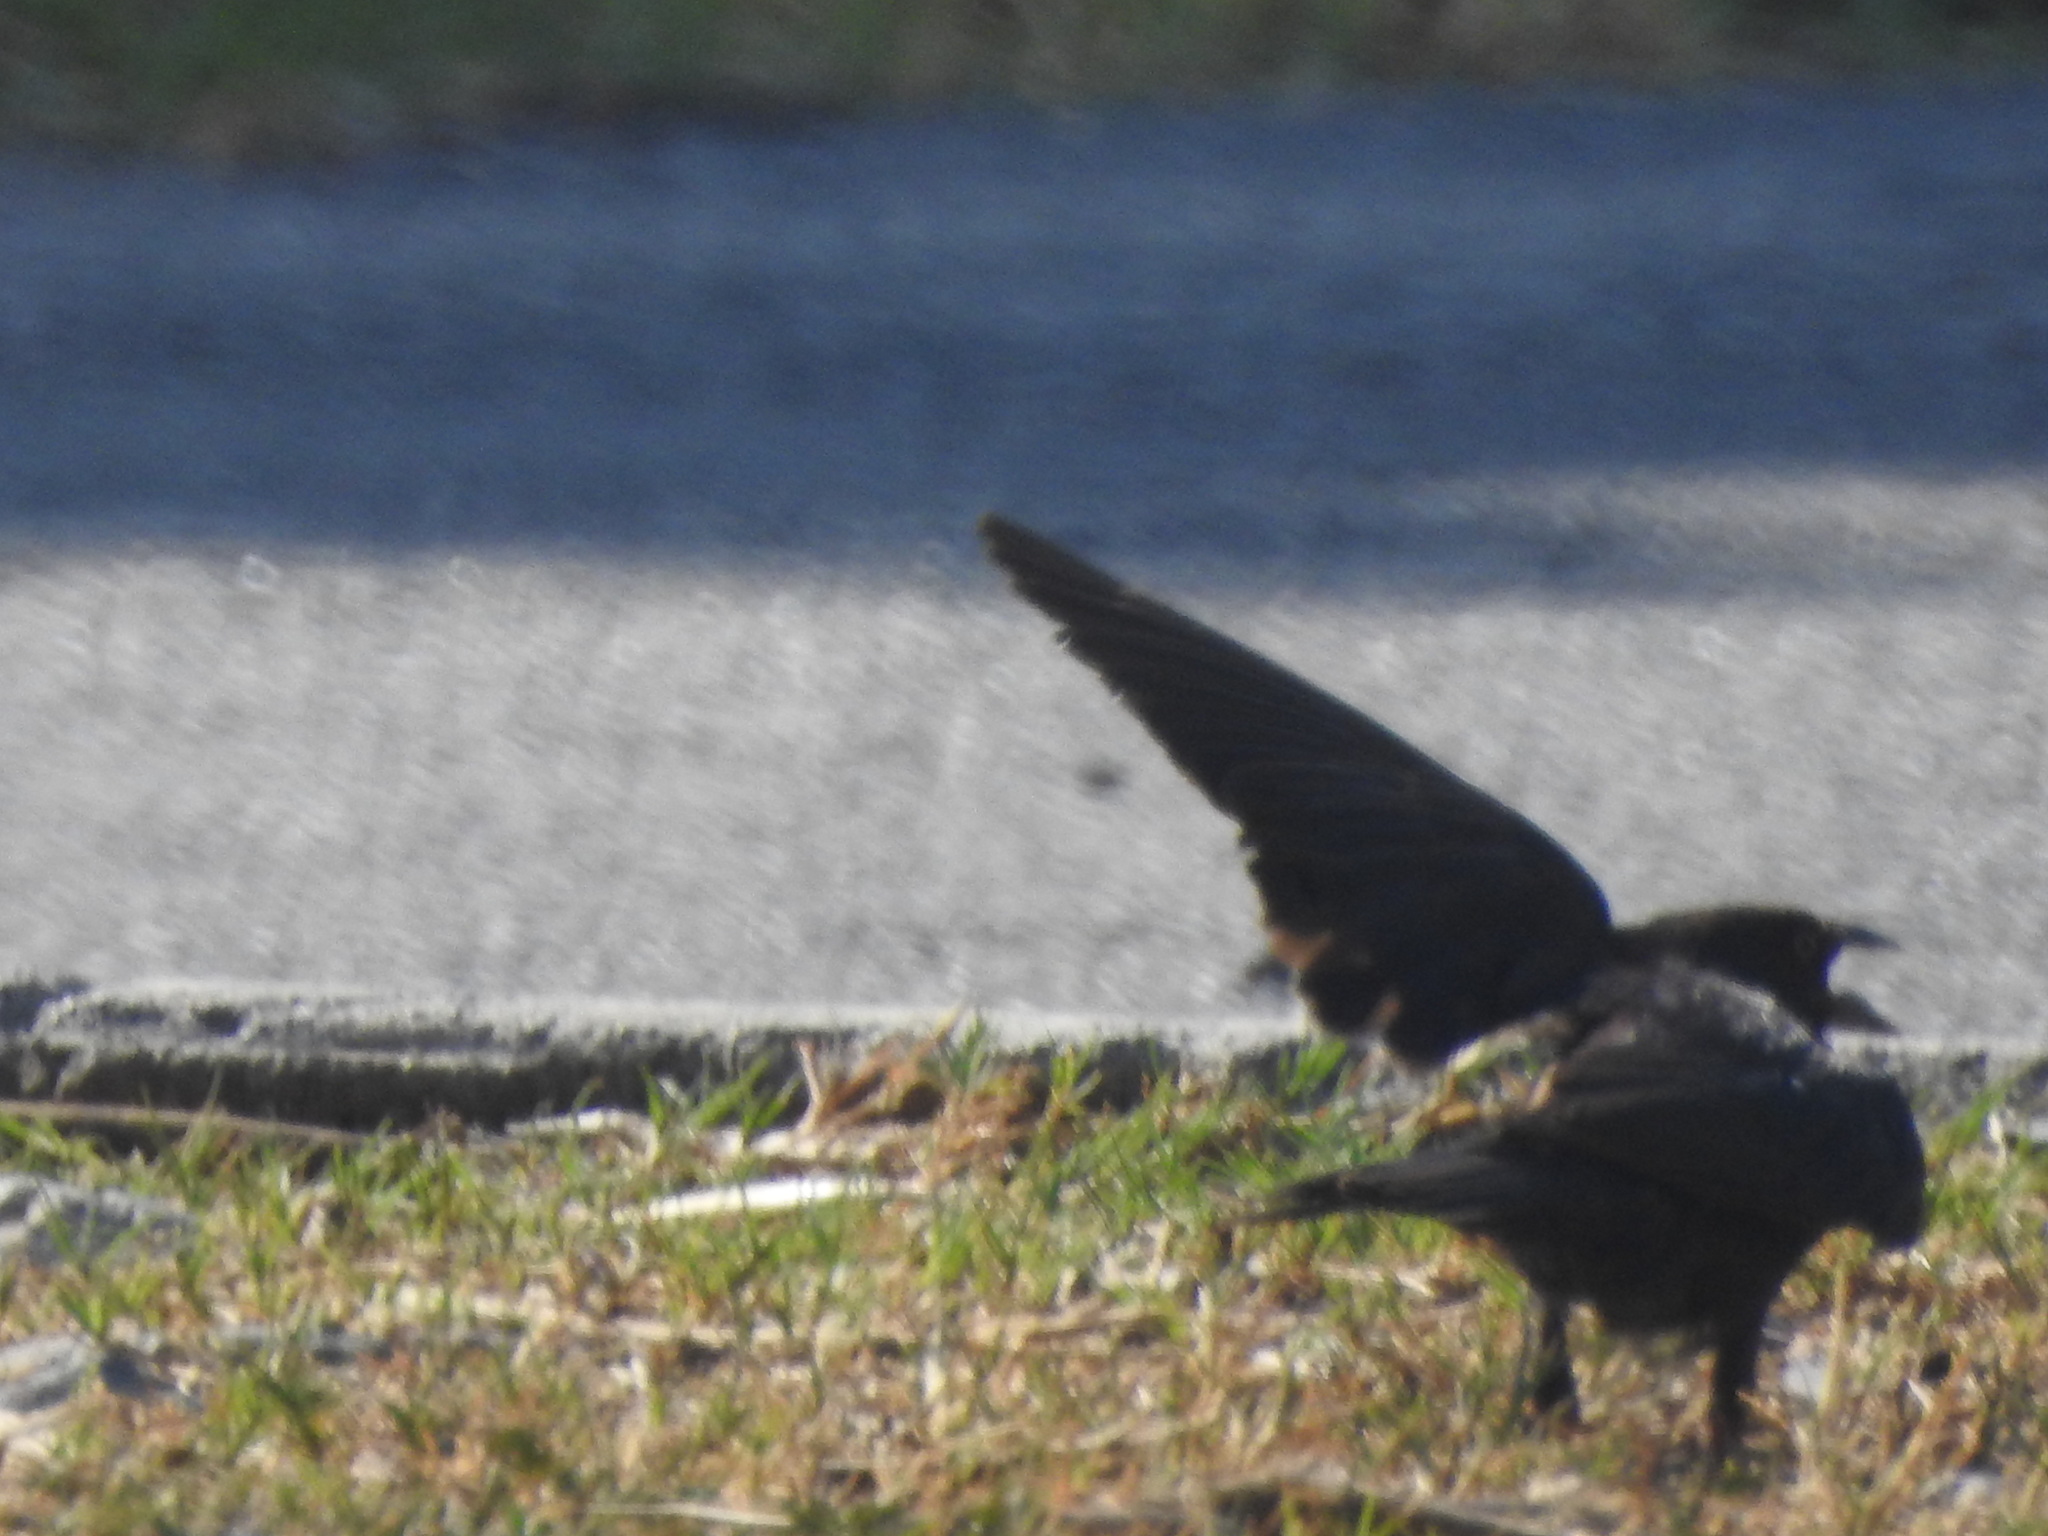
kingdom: Animalia
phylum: Chordata
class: Aves
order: Passeriformes
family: Icteridae
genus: Molothrus
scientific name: Molothrus aeneus
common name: Bronzed cowbird
